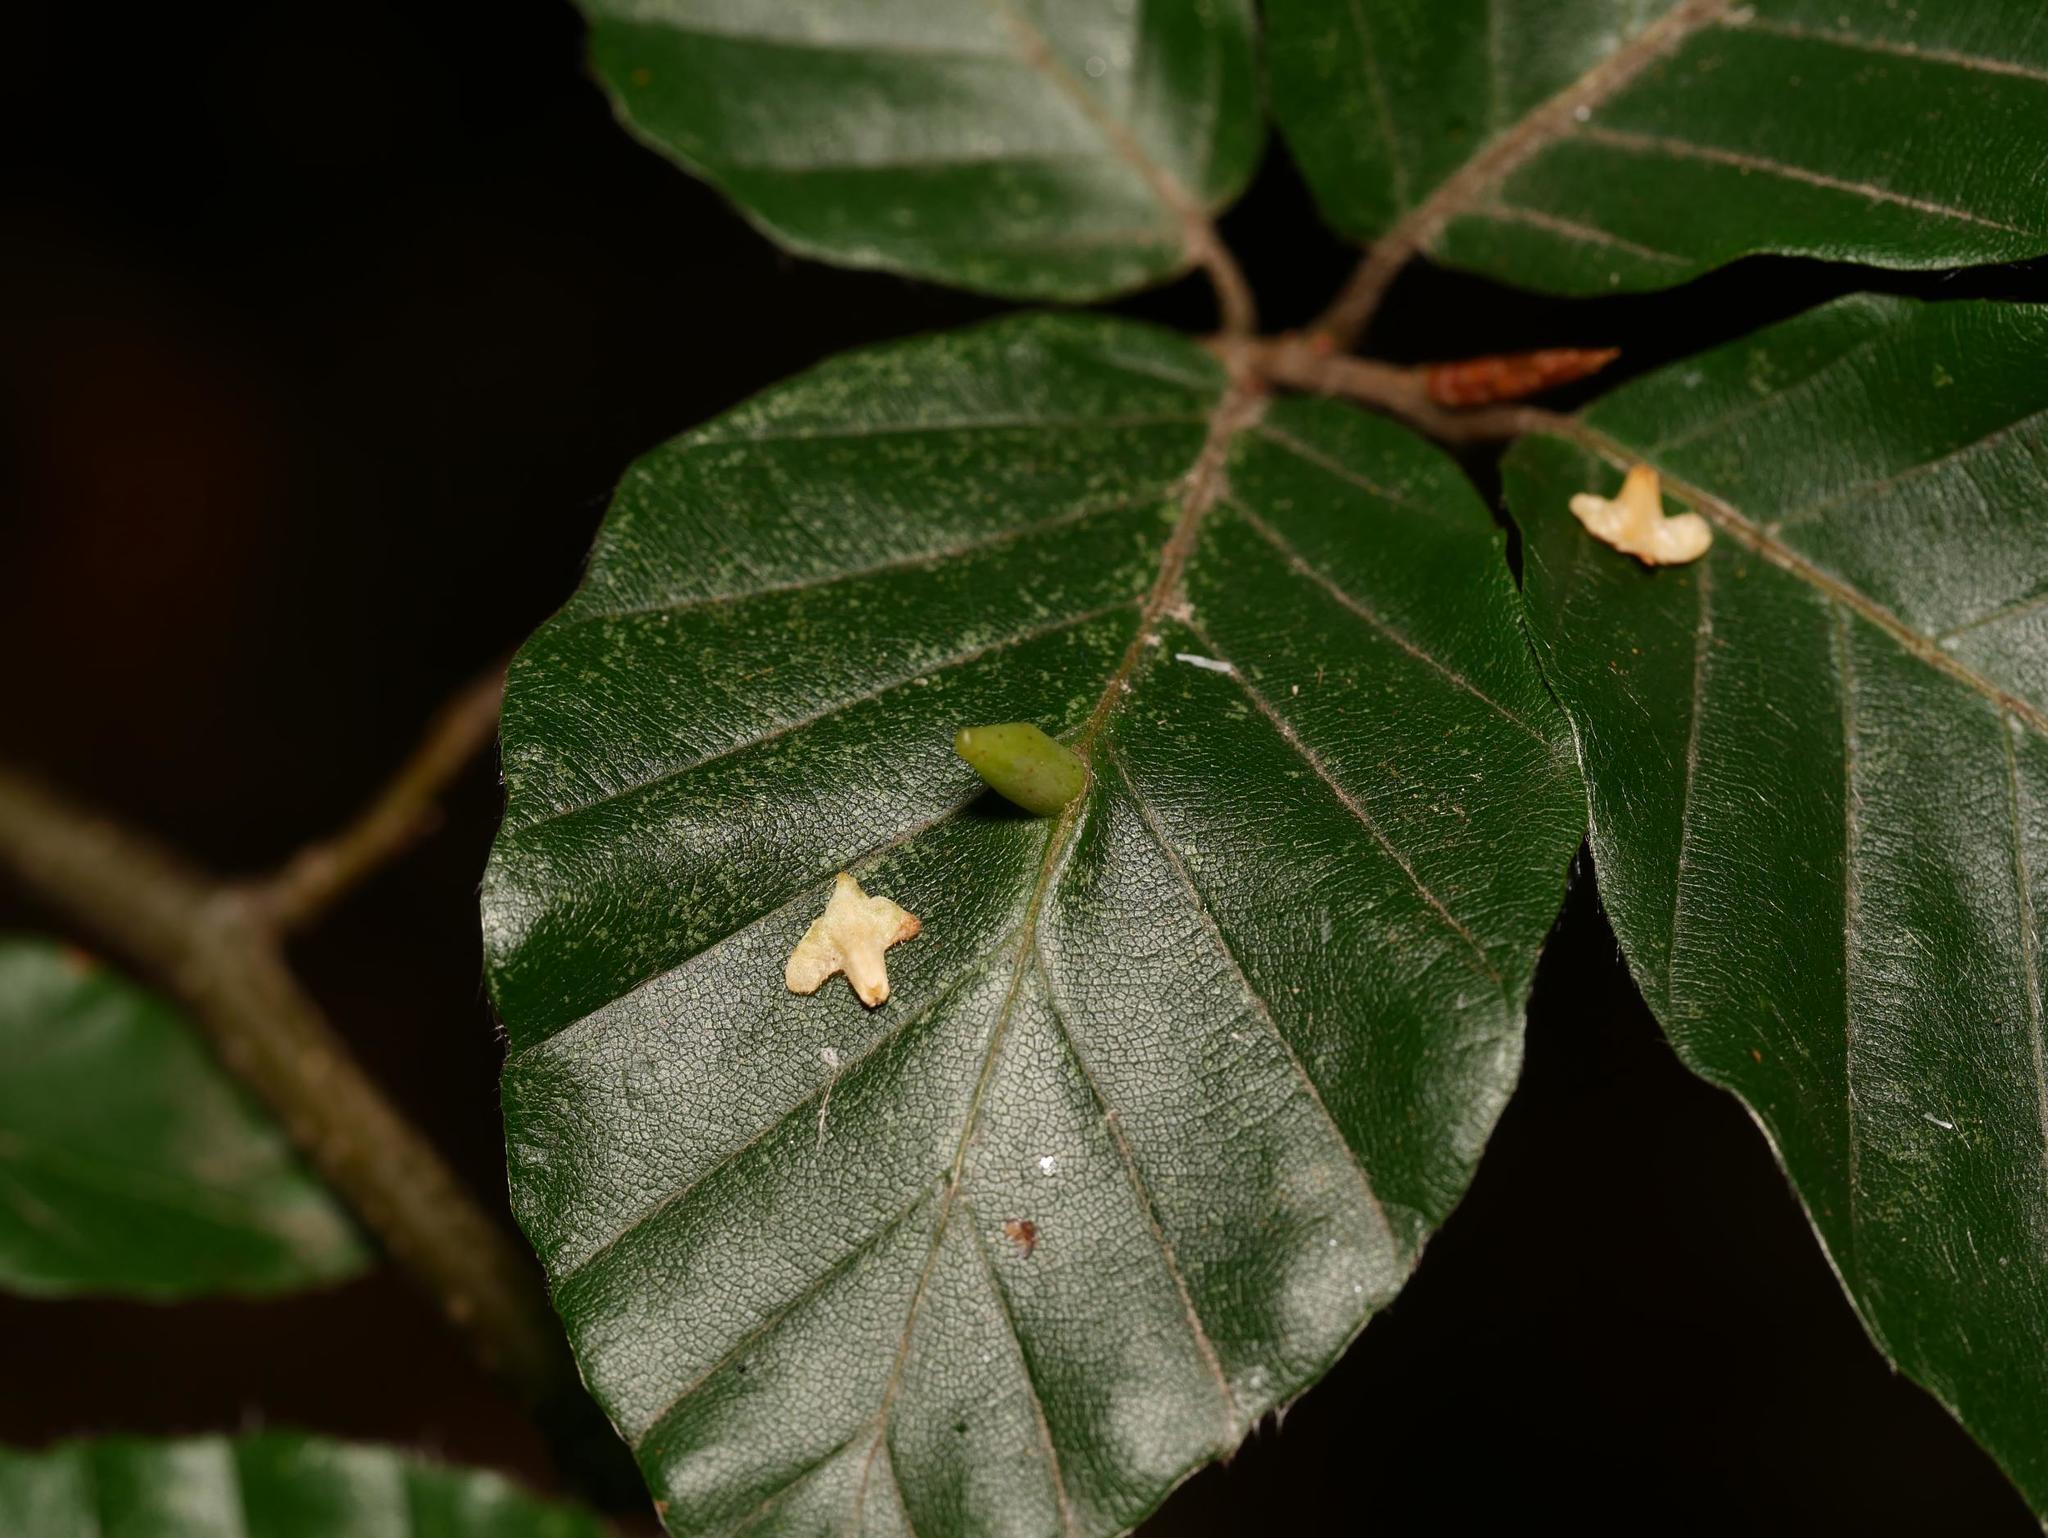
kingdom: Animalia
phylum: Arthropoda
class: Insecta
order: Diptera
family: Cecidomyiidae
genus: Mikiola
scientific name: Mikiola fagi
